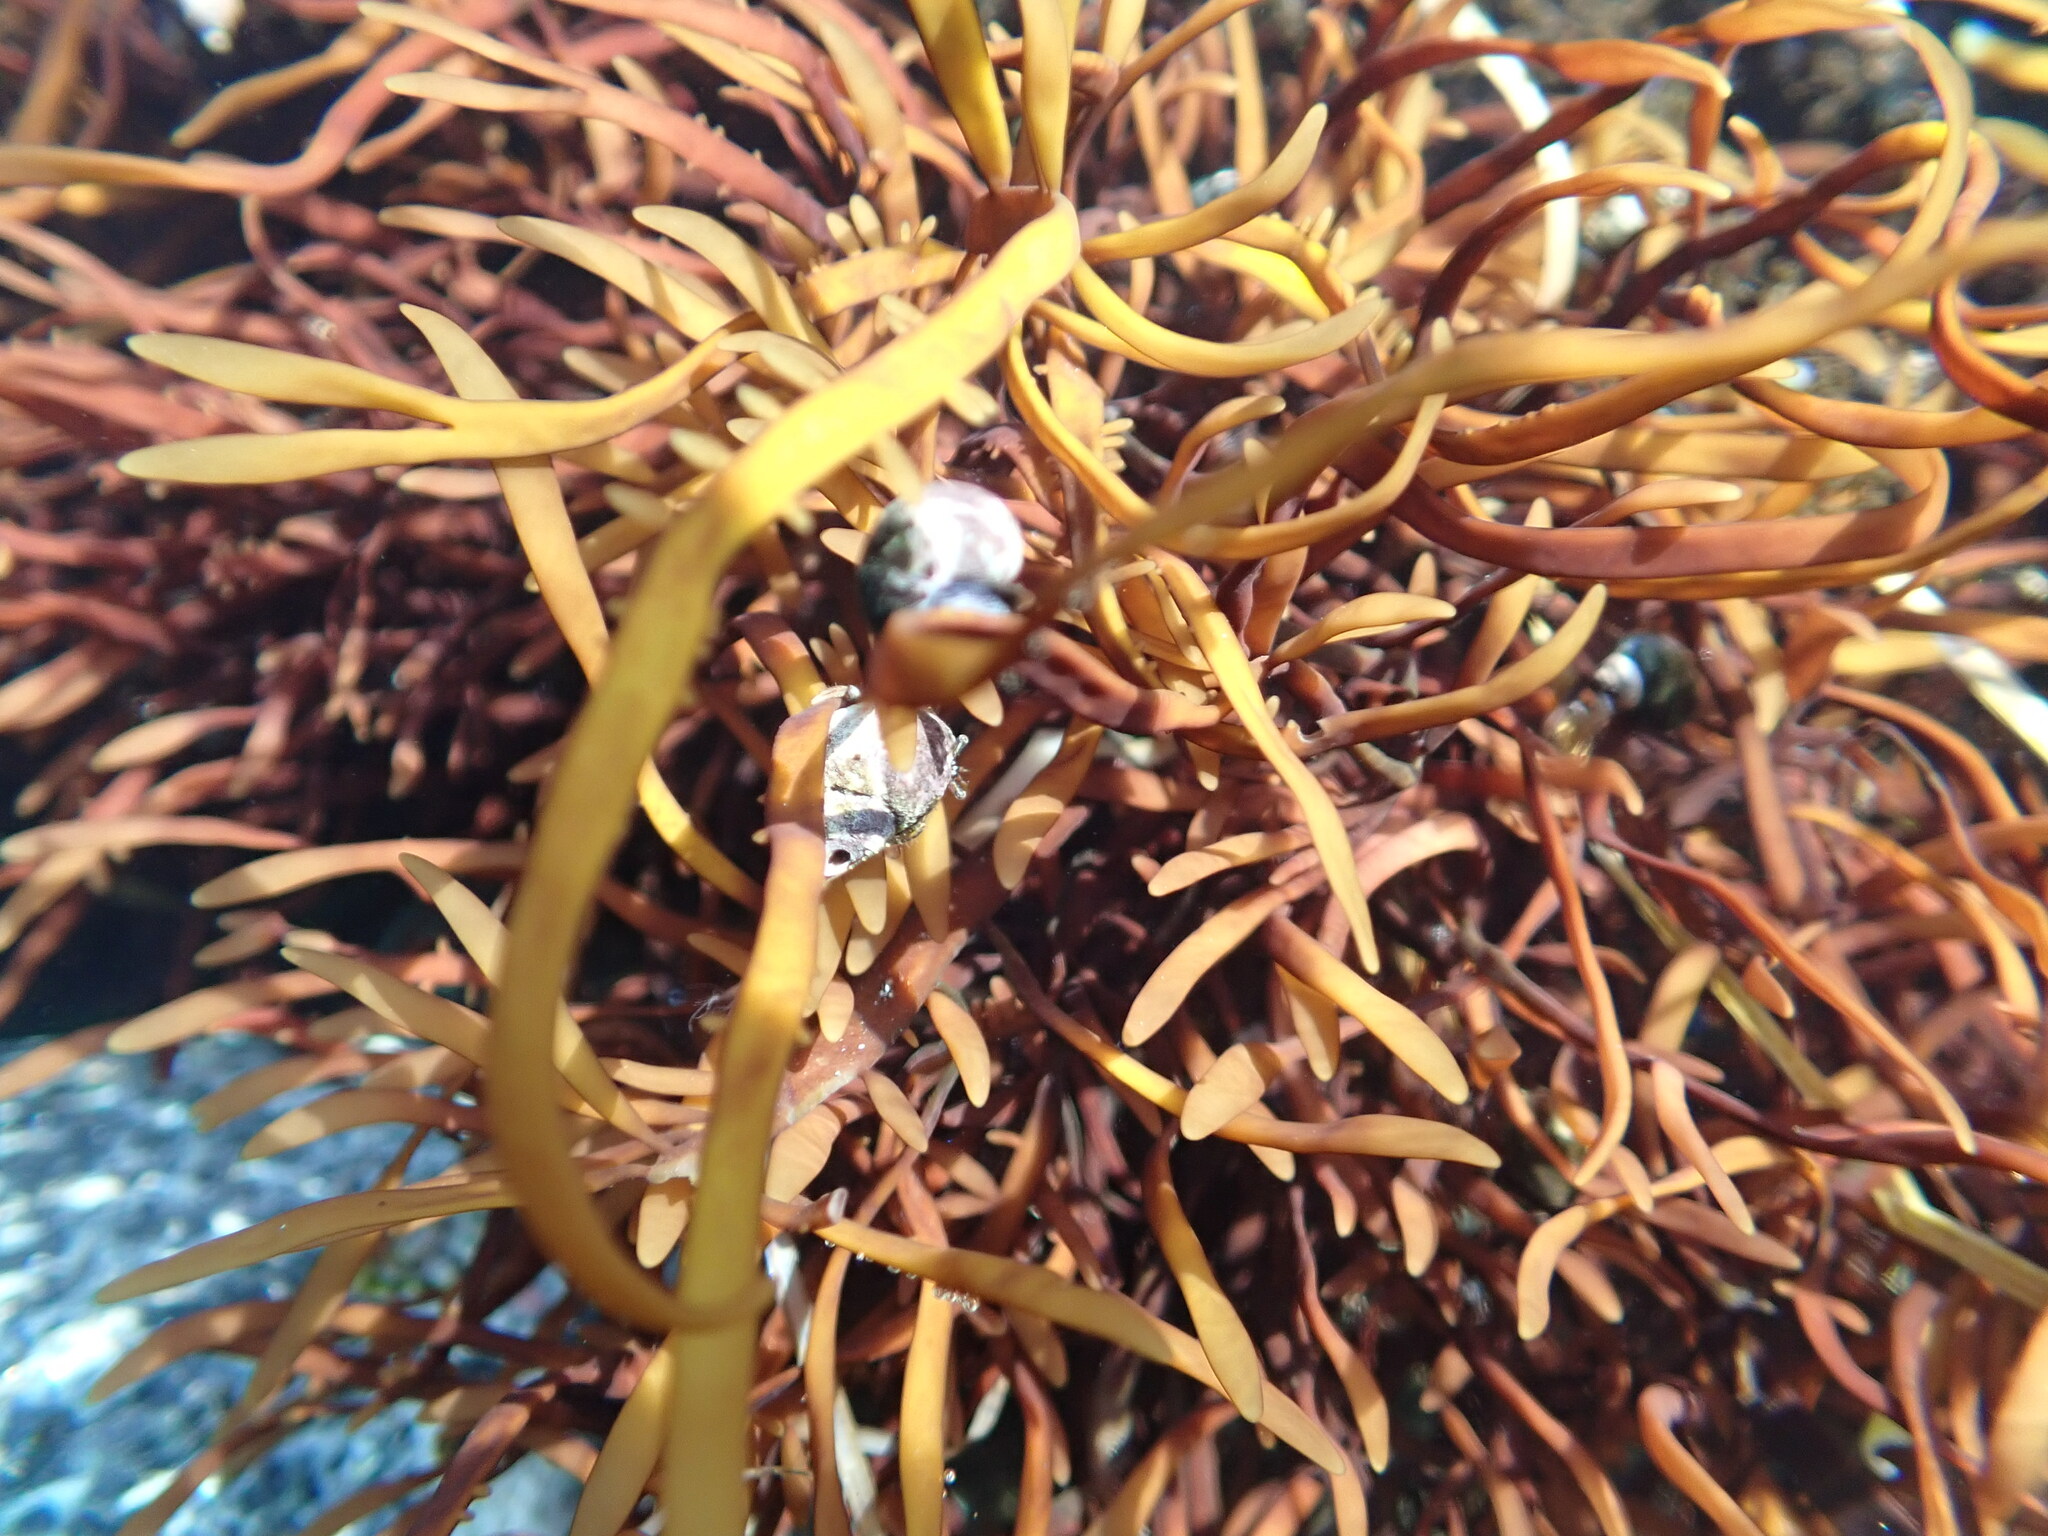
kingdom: Plantae
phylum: Rhodophyta
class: Florideophyceae
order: Halymeniales
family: Halymeniaceae
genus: Grateloupia
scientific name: Grateloupia Prionitis lanceolata
